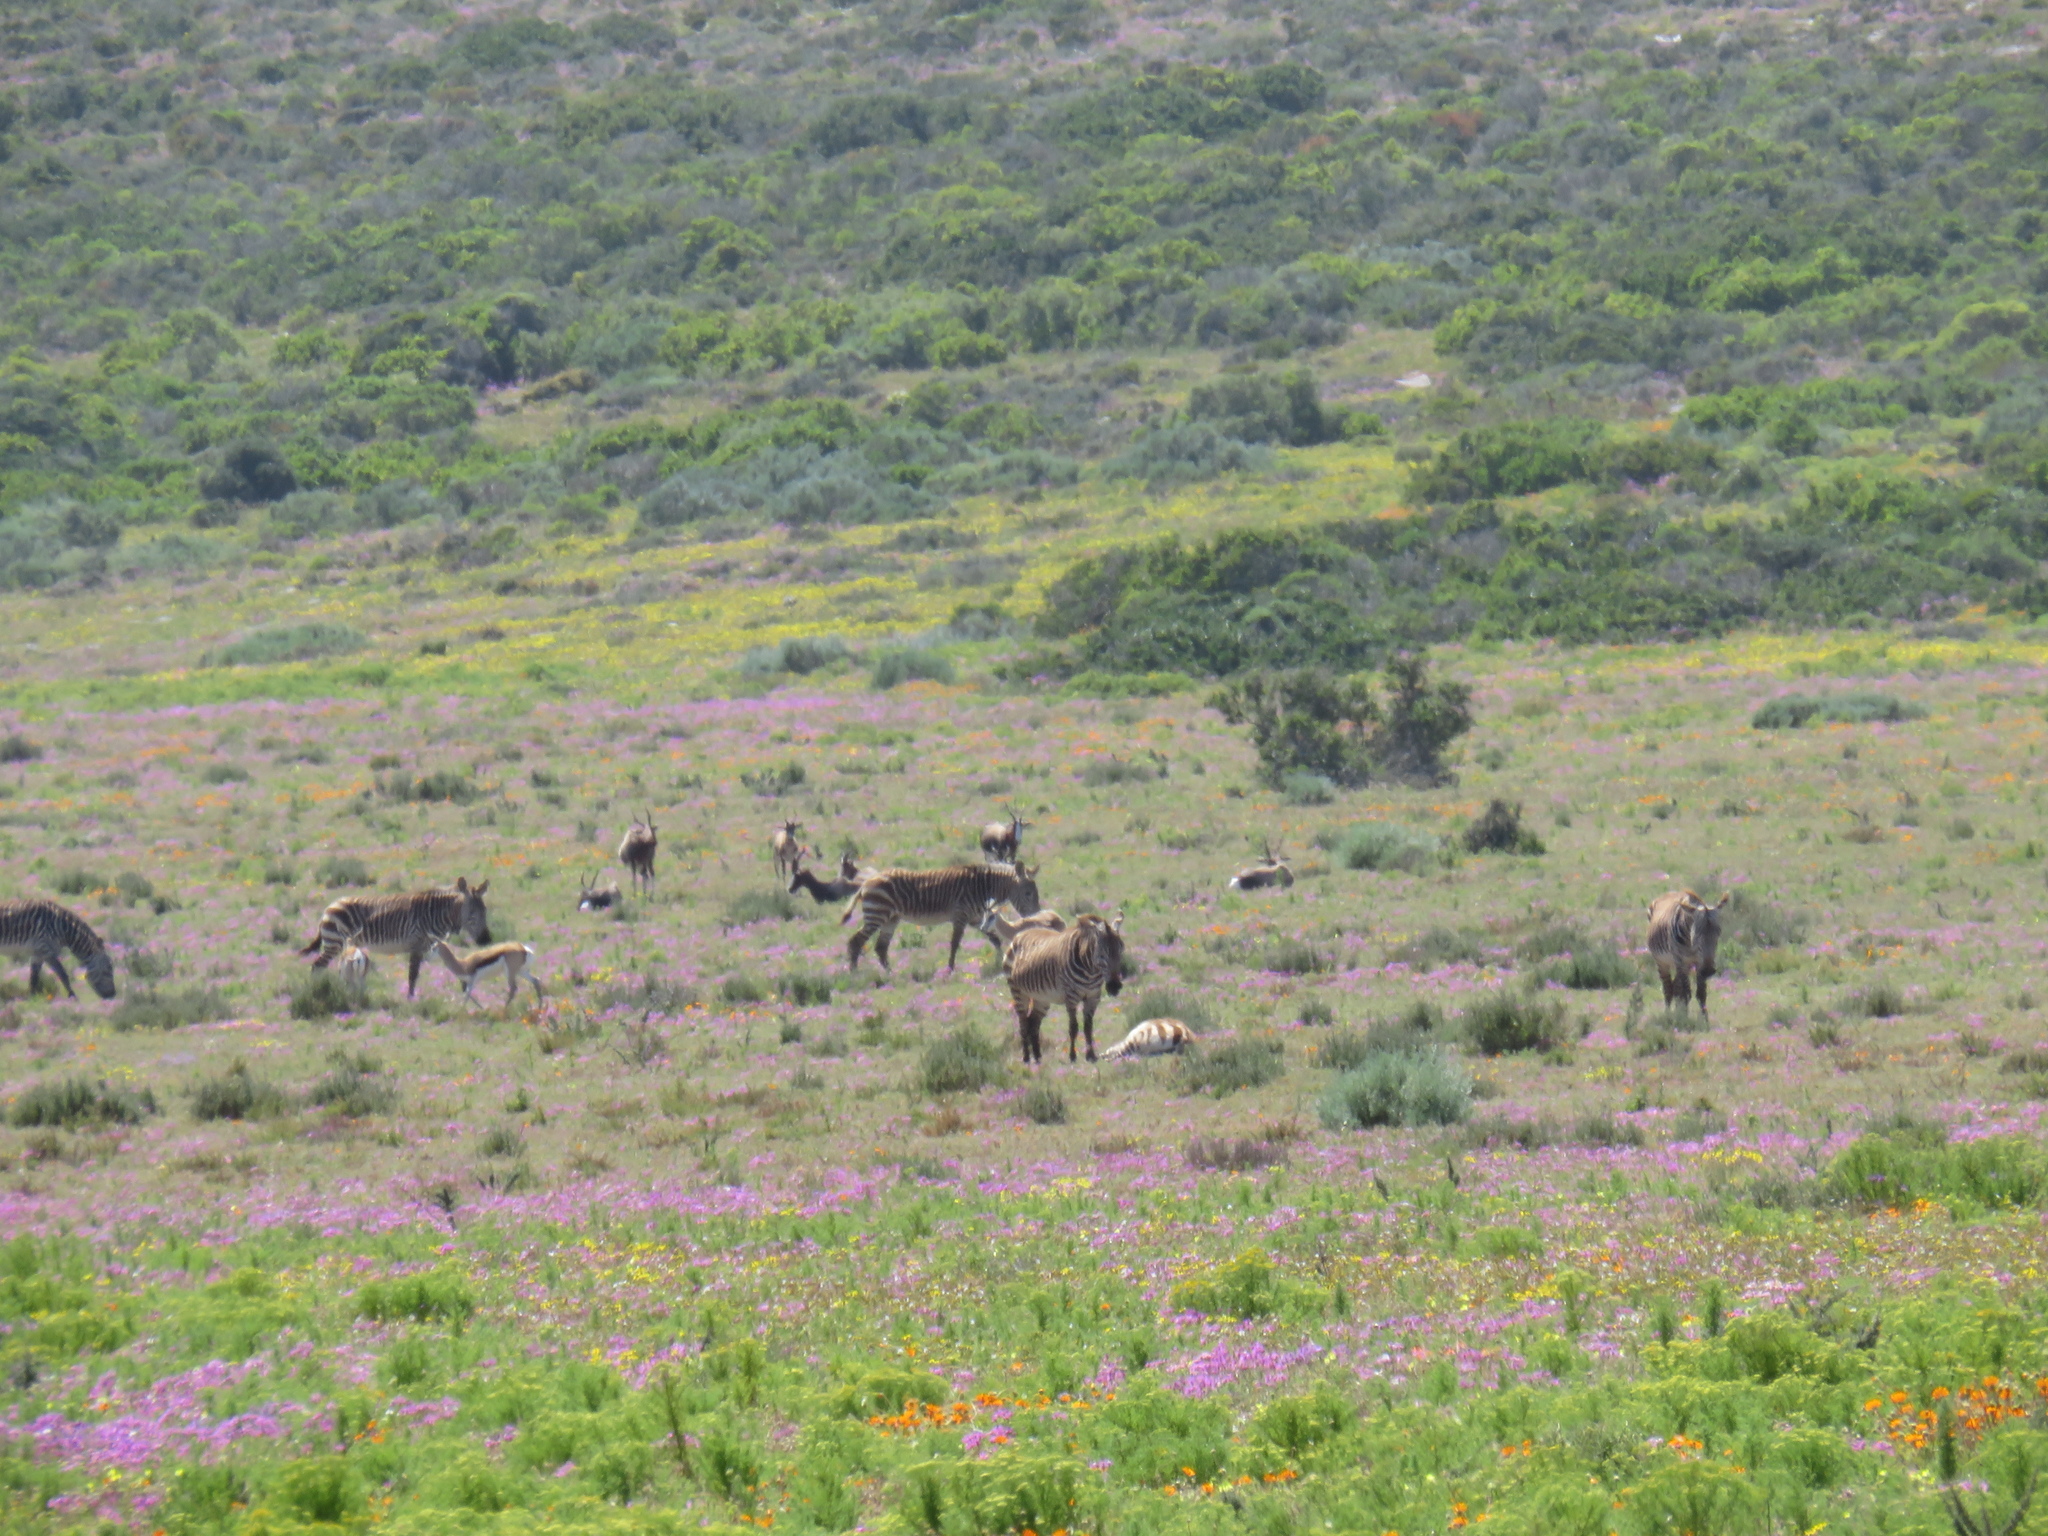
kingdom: Animalia
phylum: Chordata
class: Mammalia
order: Artiodactyla
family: Bovidae
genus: Damaliscus
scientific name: Damaliscus pygargus
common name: Bontebok
